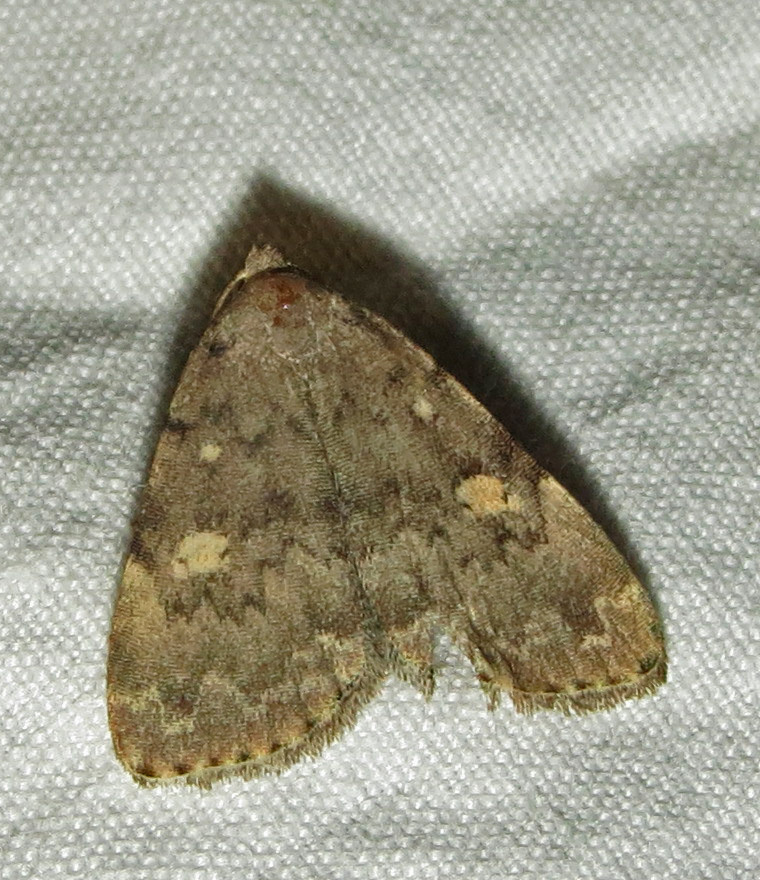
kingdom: Animalia
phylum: Arthropoda
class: Insecta
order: Lepidoptera
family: Erebidae
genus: Idia
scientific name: Idia aemula
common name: Common idia moth
